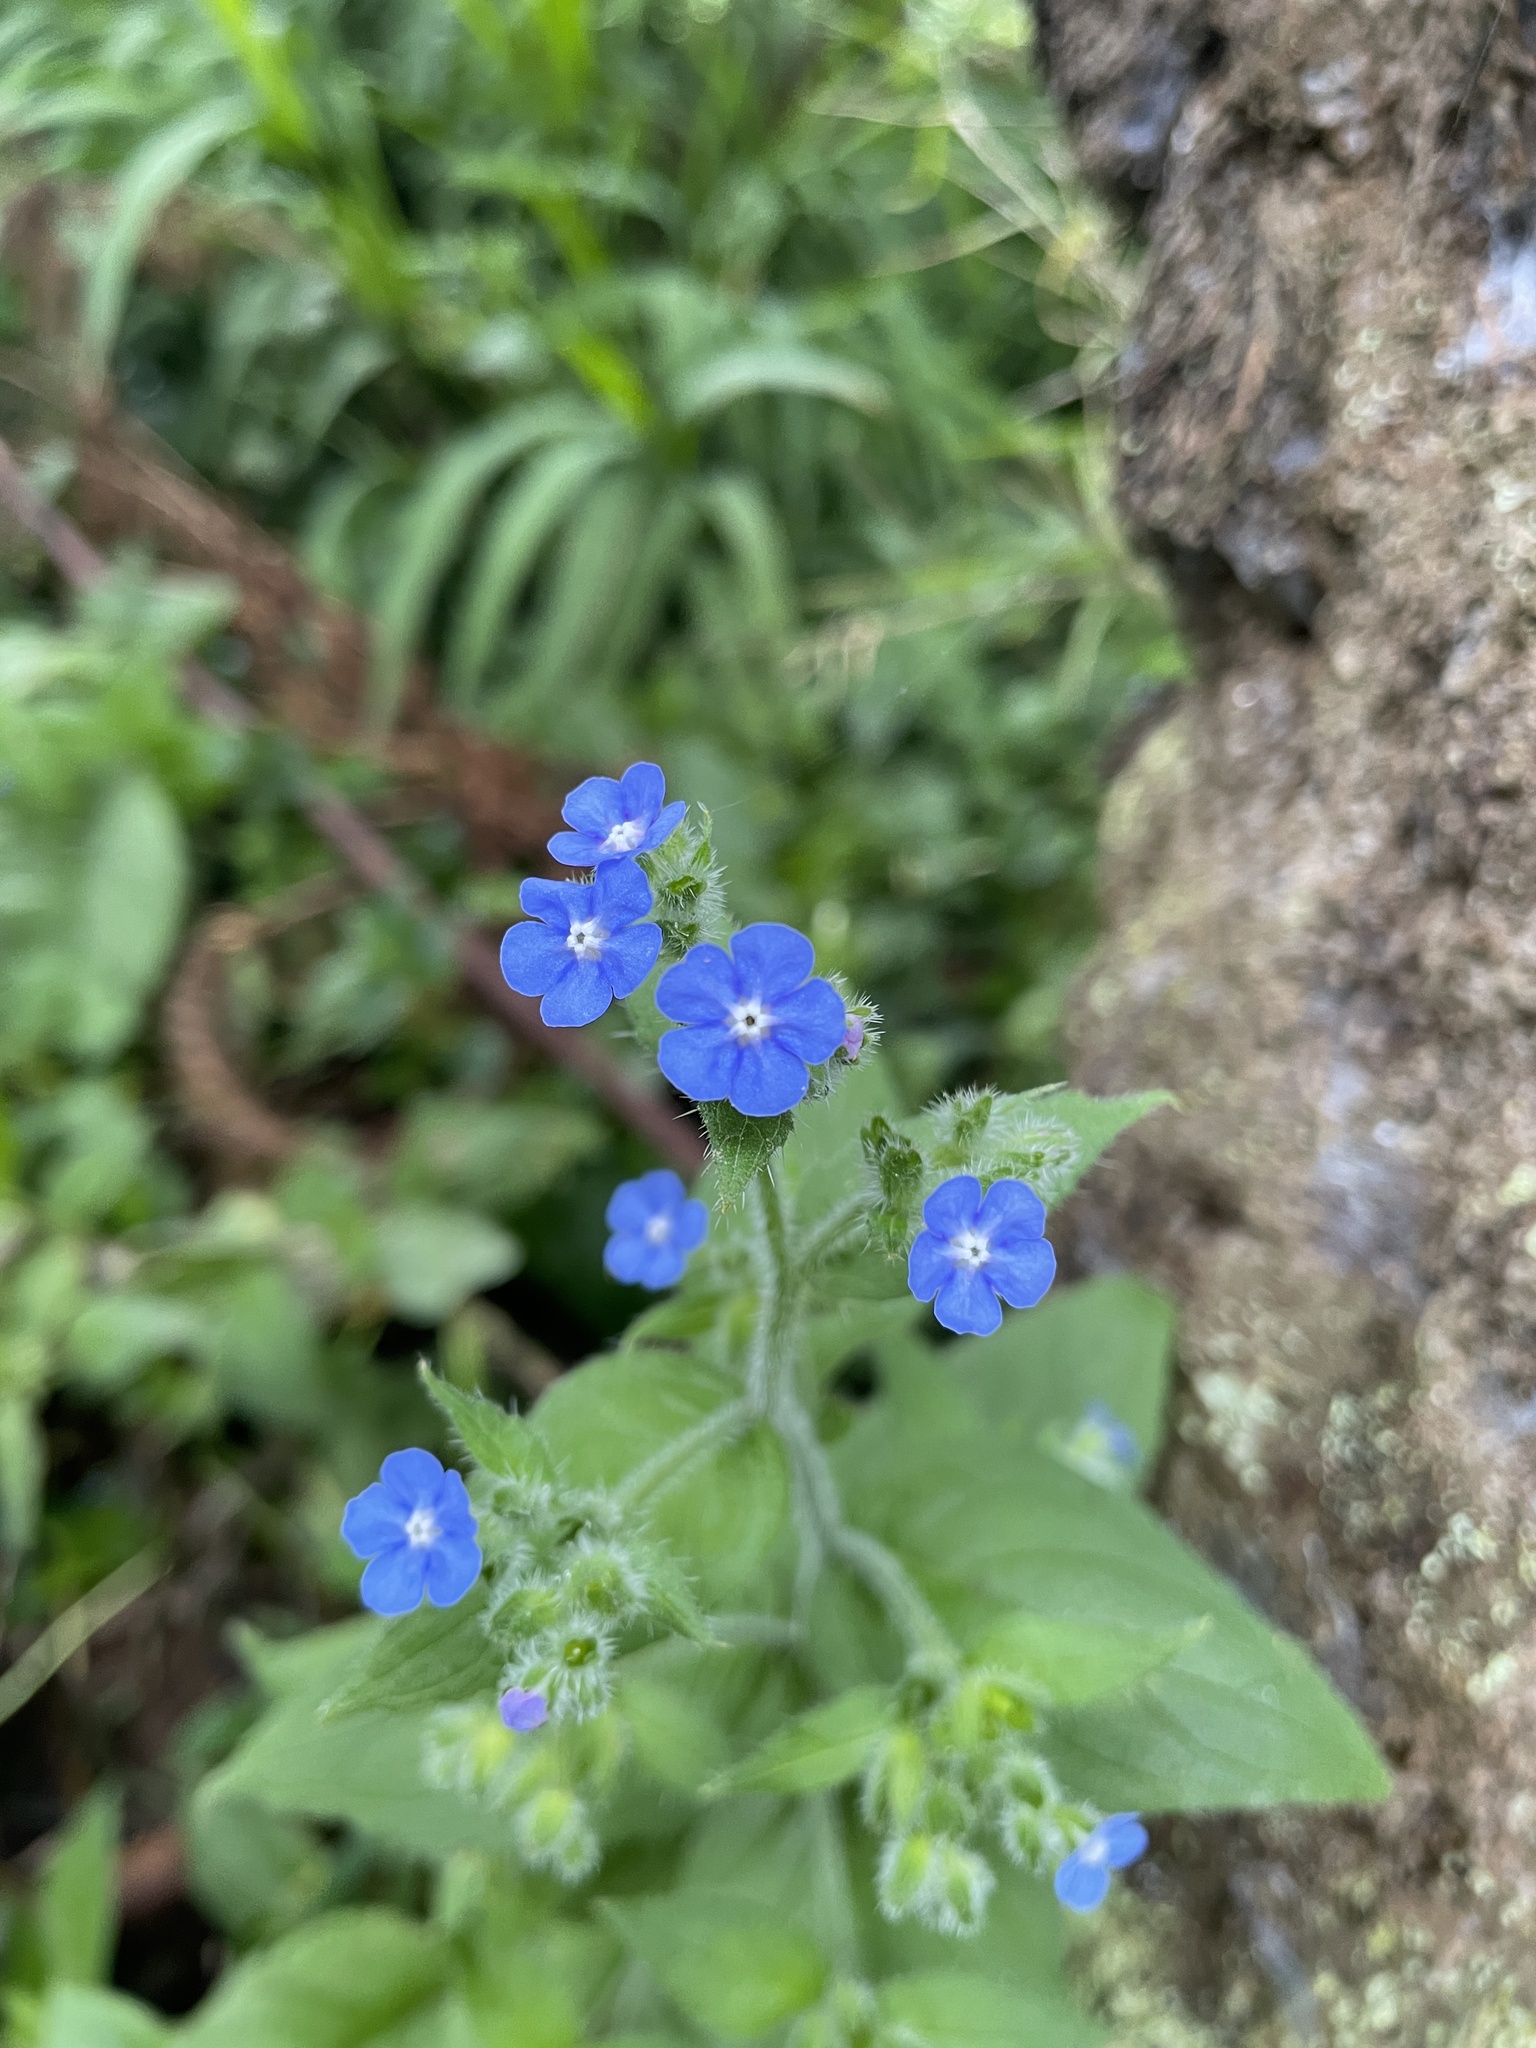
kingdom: Plantae
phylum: Tracheophyta
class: Magnoliopsida
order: Boraginales
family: Boraginaceae
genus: Pentaglottis
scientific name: Pentaglottis sempervirens
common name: Green alkanet
